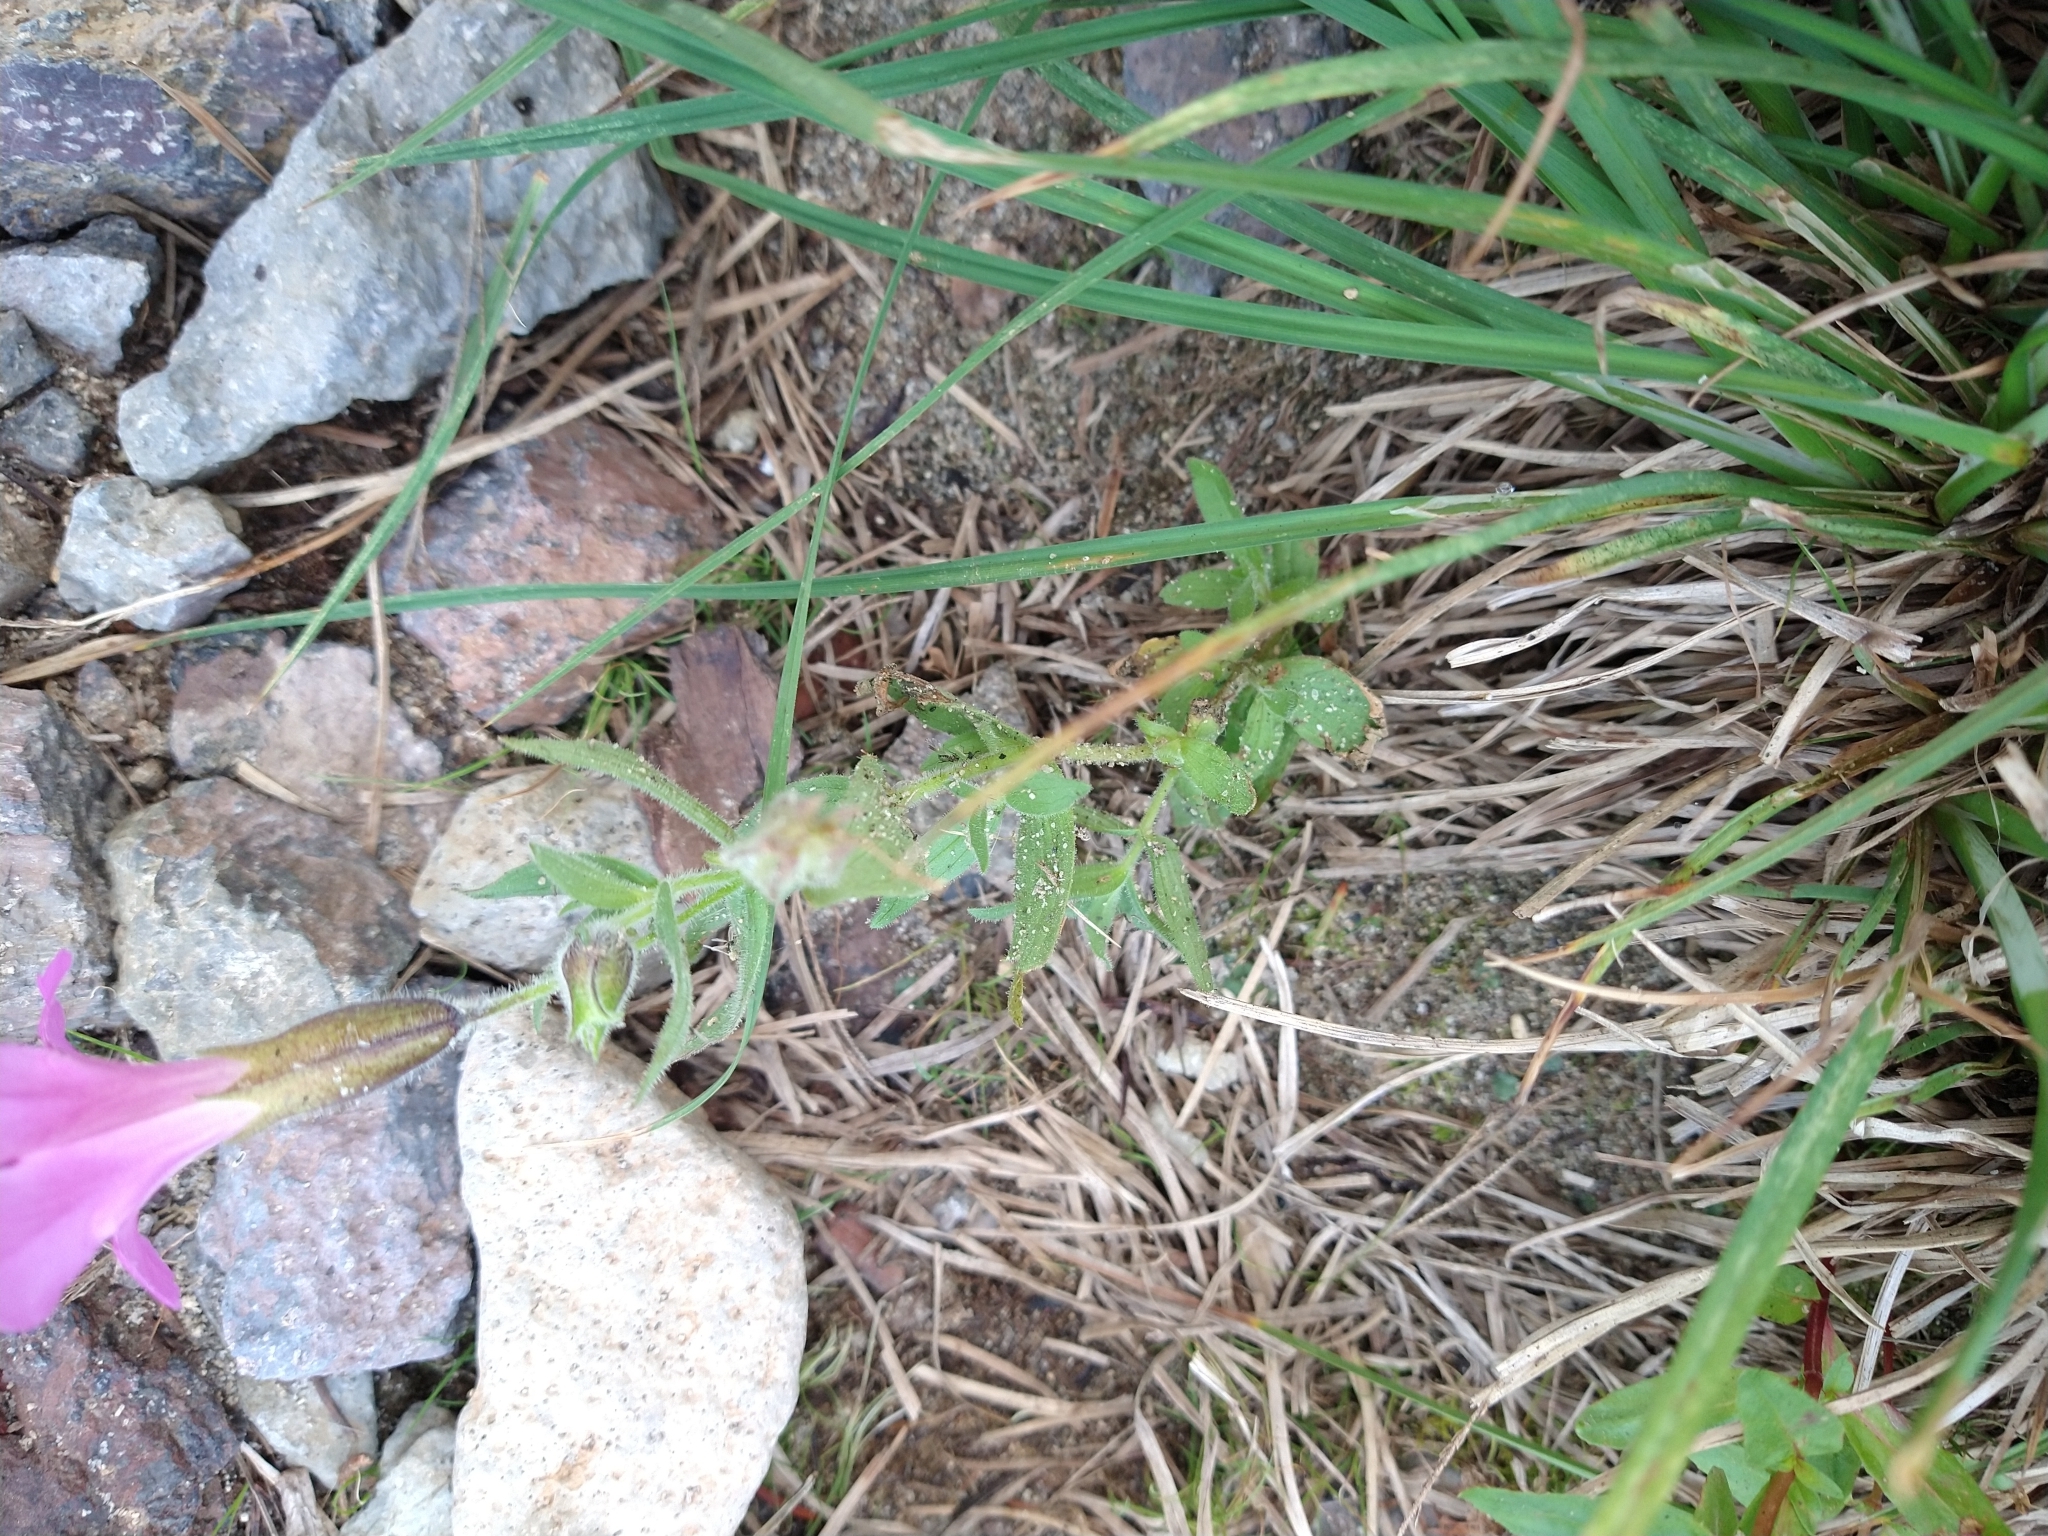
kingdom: Plantae
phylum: Tracheophyta
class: Magnoliopsida
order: Lamiales
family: Phrymaceae
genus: Erythranthe
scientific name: Erythranthe lewisii
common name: Lewis's monkey-flower
